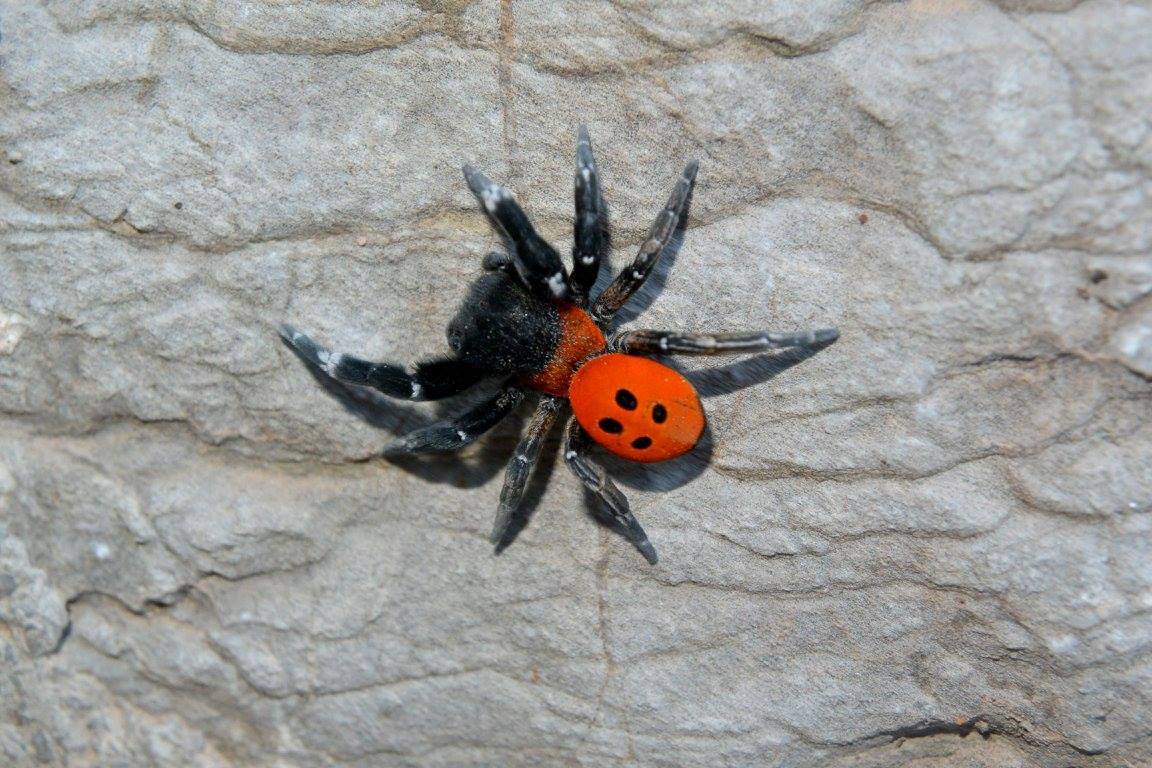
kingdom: Animalia
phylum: Arthropoda
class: Arachnida
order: Araneae
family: Eresidae
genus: Eresus
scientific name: Eresus
